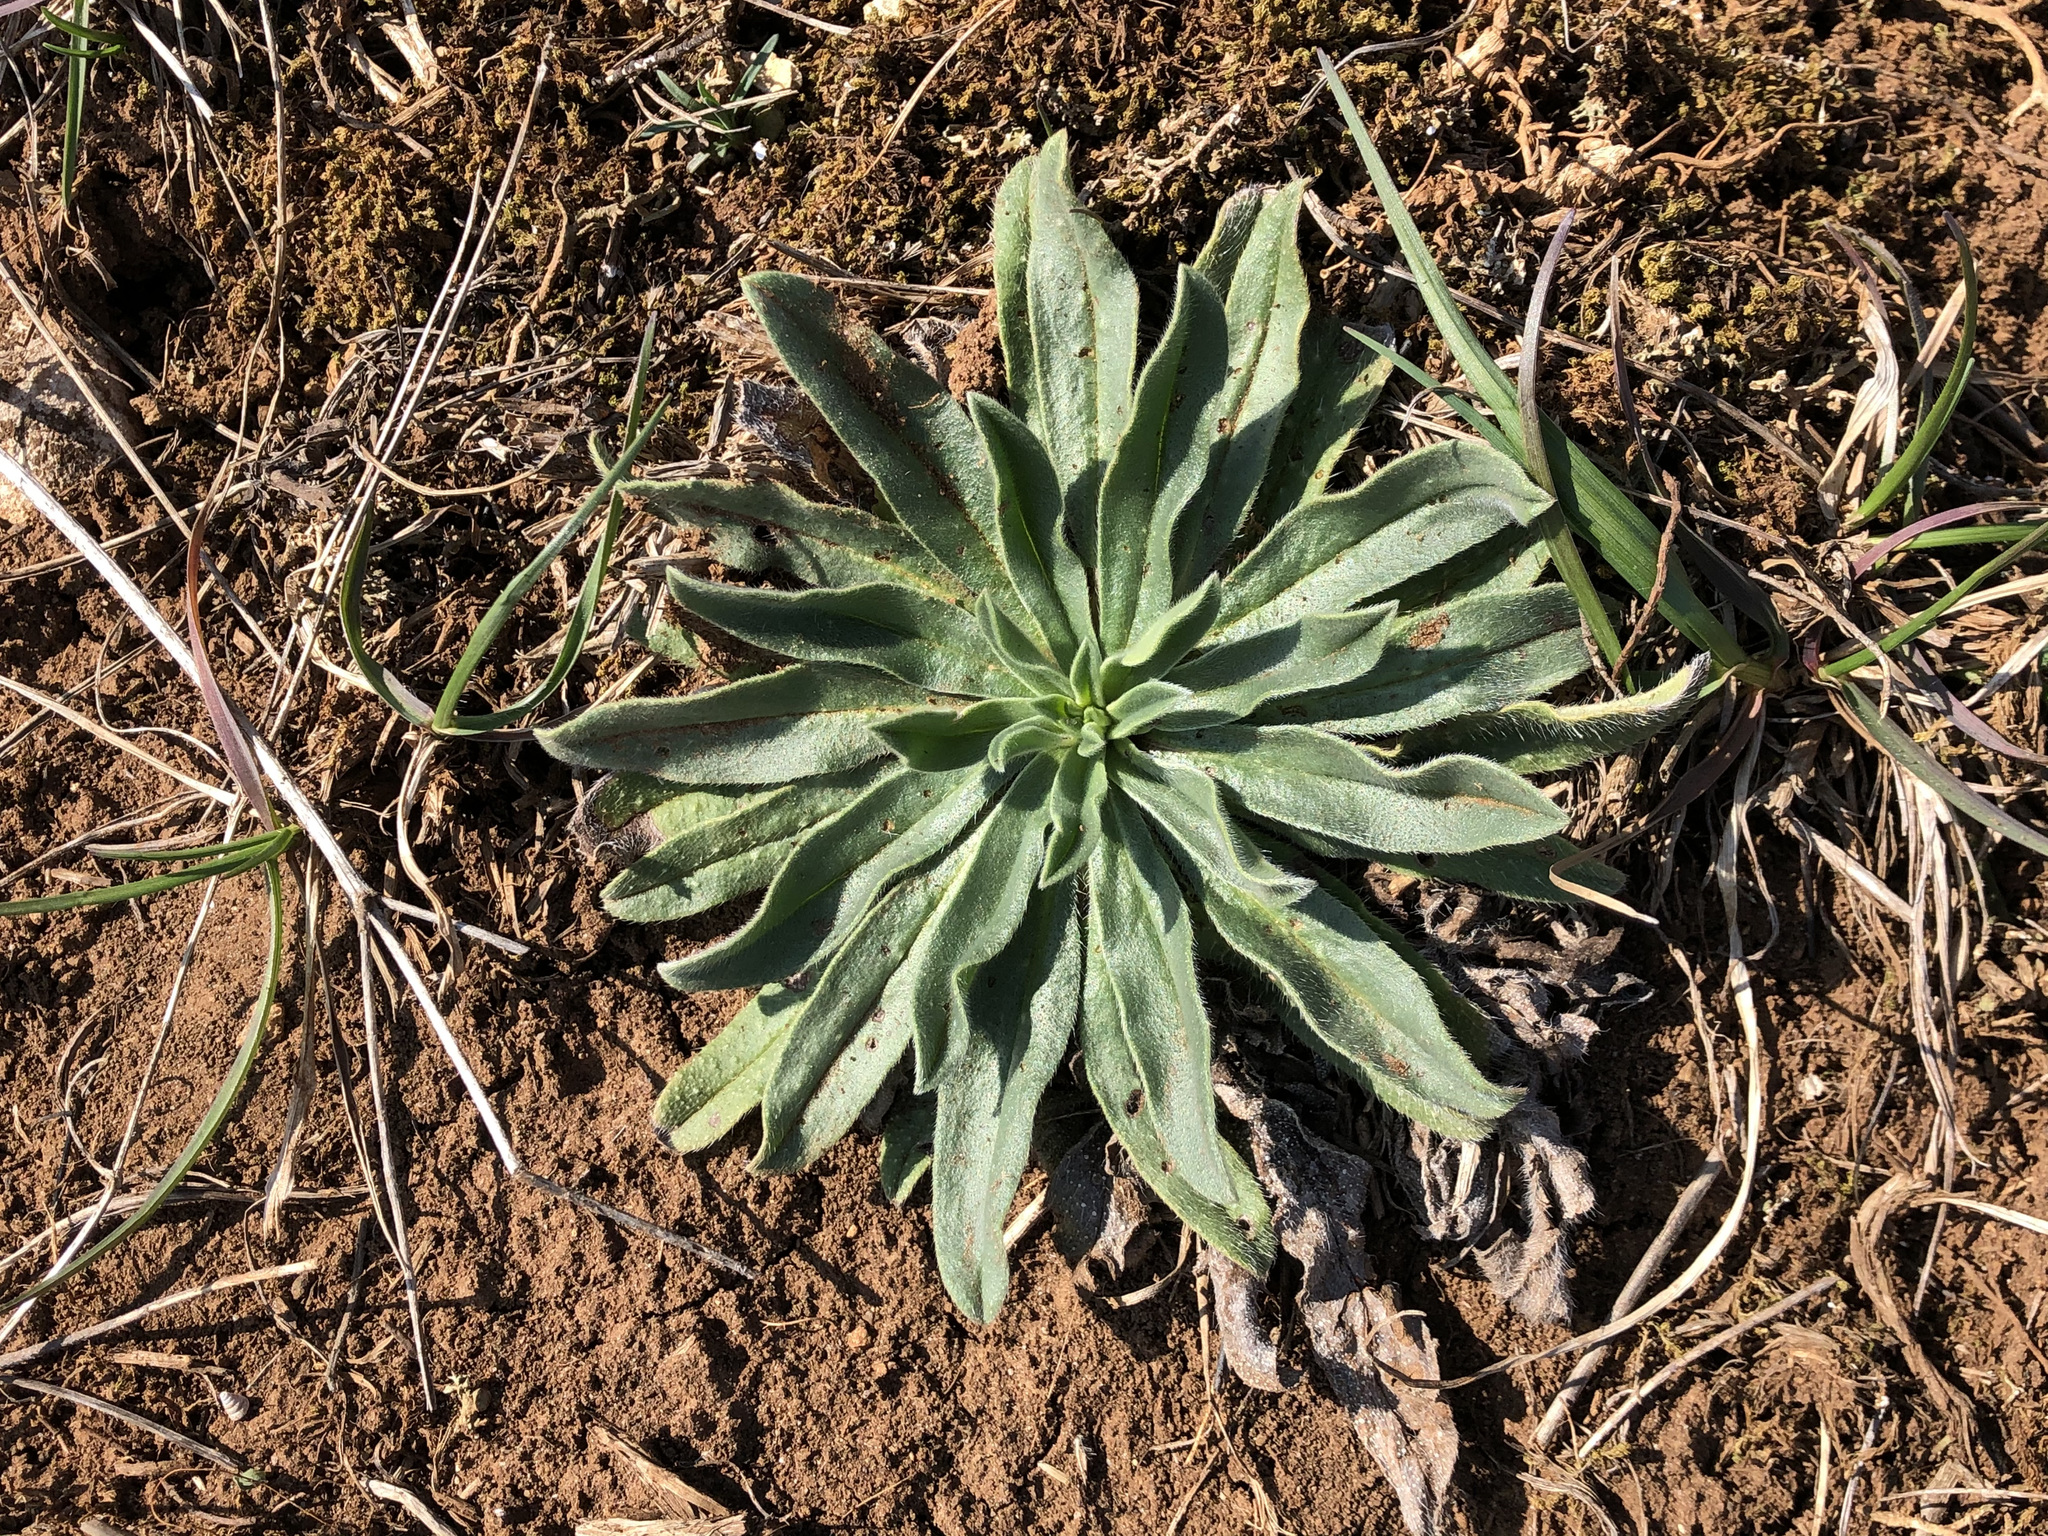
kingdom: Plantae
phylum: Tracheophyta
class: Magnoliopsida
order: Boraginales
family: Boraginaceae
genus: Echium
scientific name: Echium vulgare
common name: Common viper's bugloss
